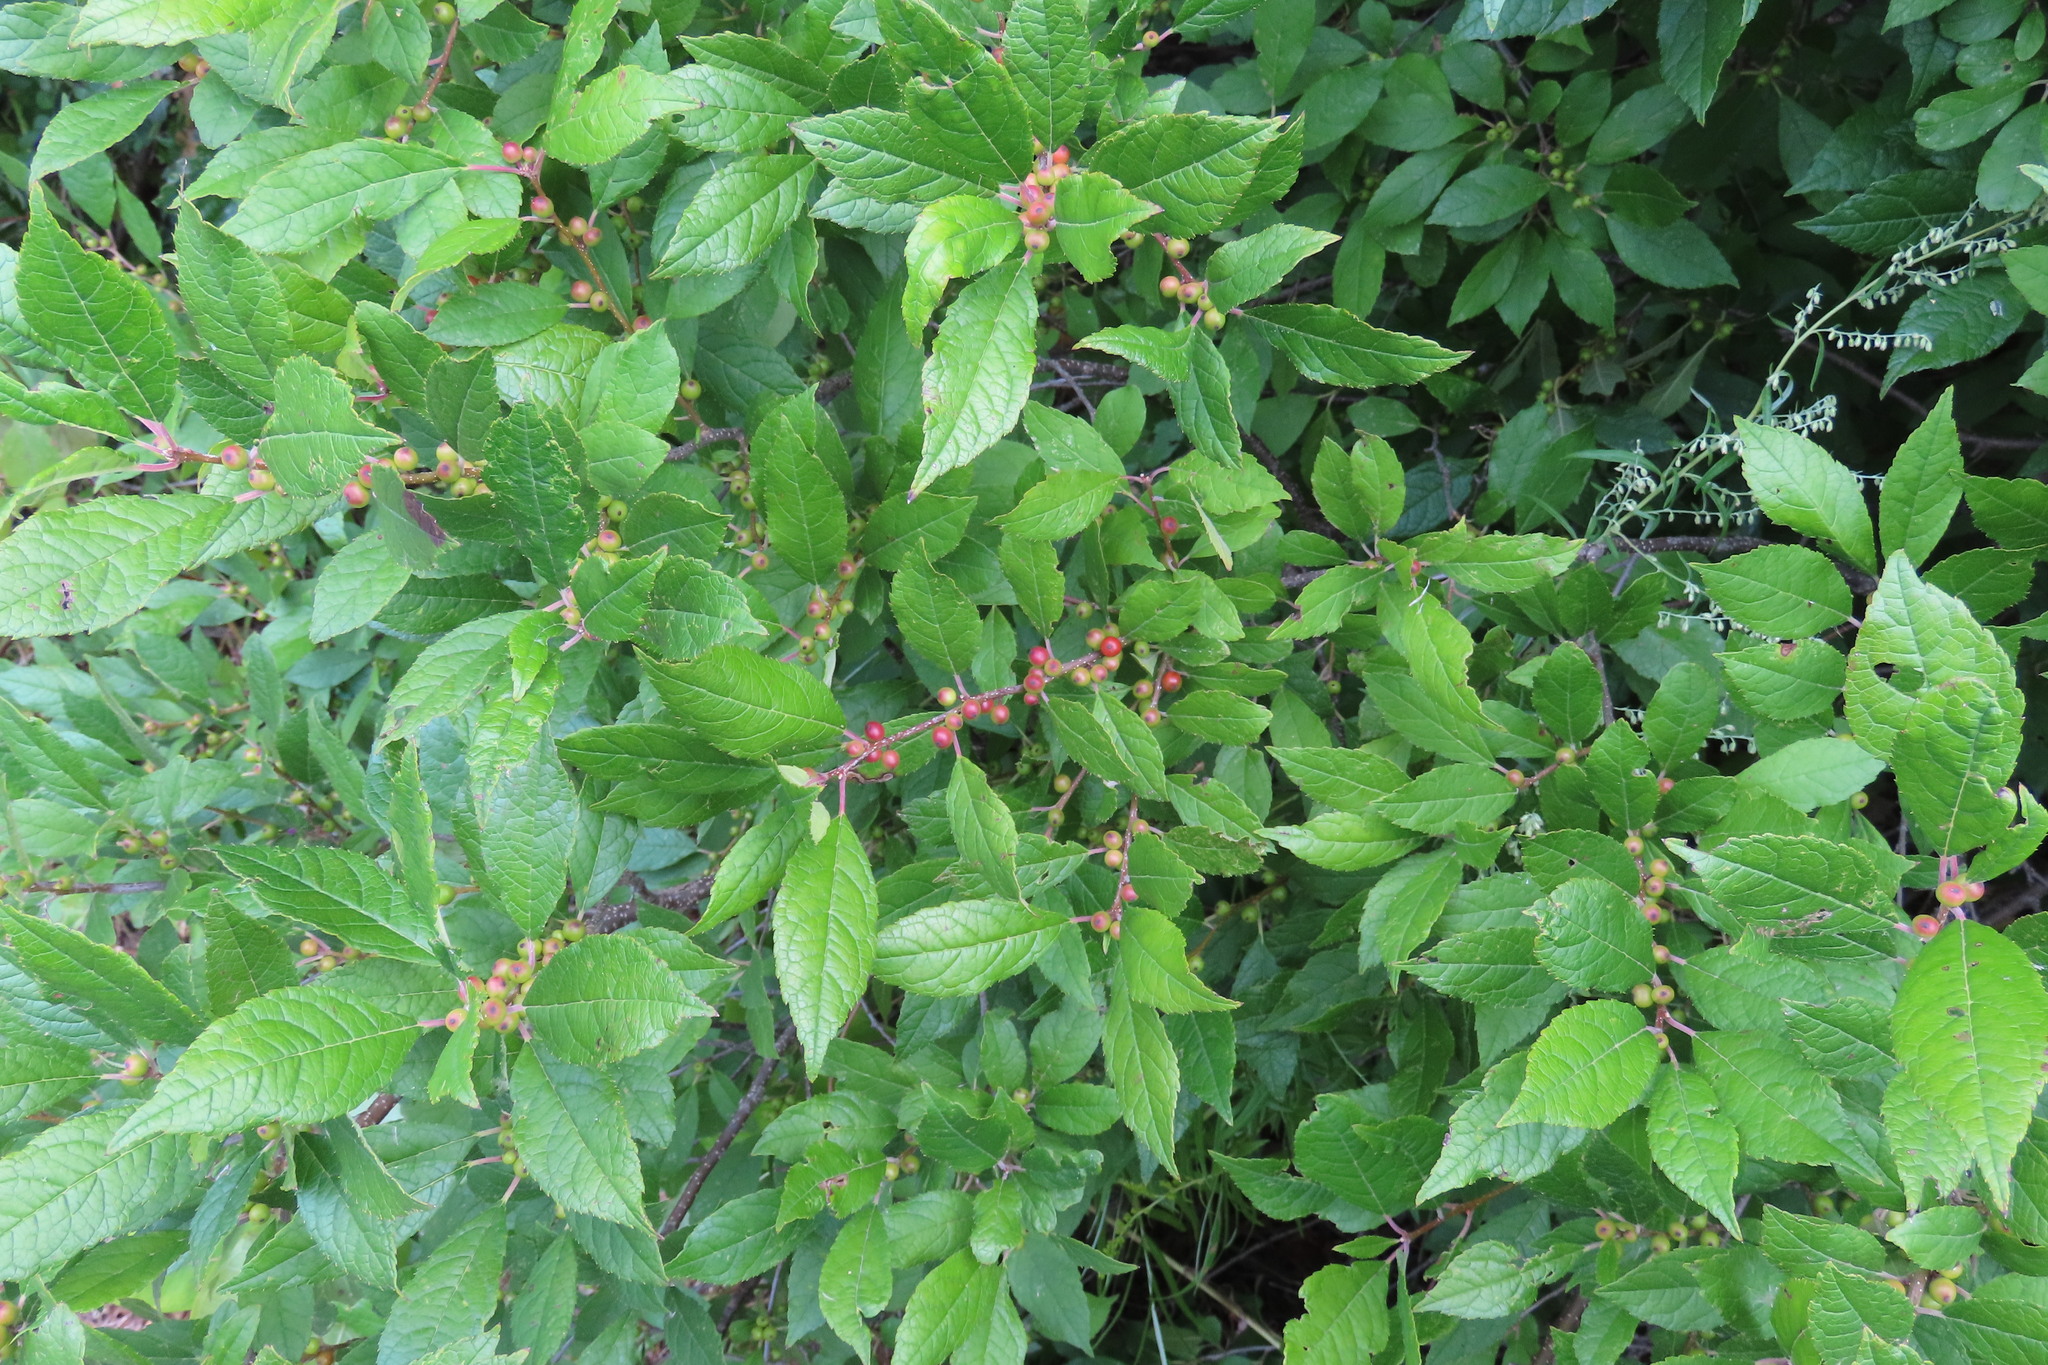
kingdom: Plantae
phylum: Tracheophyta
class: Magnoliopsida
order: Aquifoliales
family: Aquifoliaceae
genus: Ilex
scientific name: Ilex verticillata
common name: Virginia winterberry
